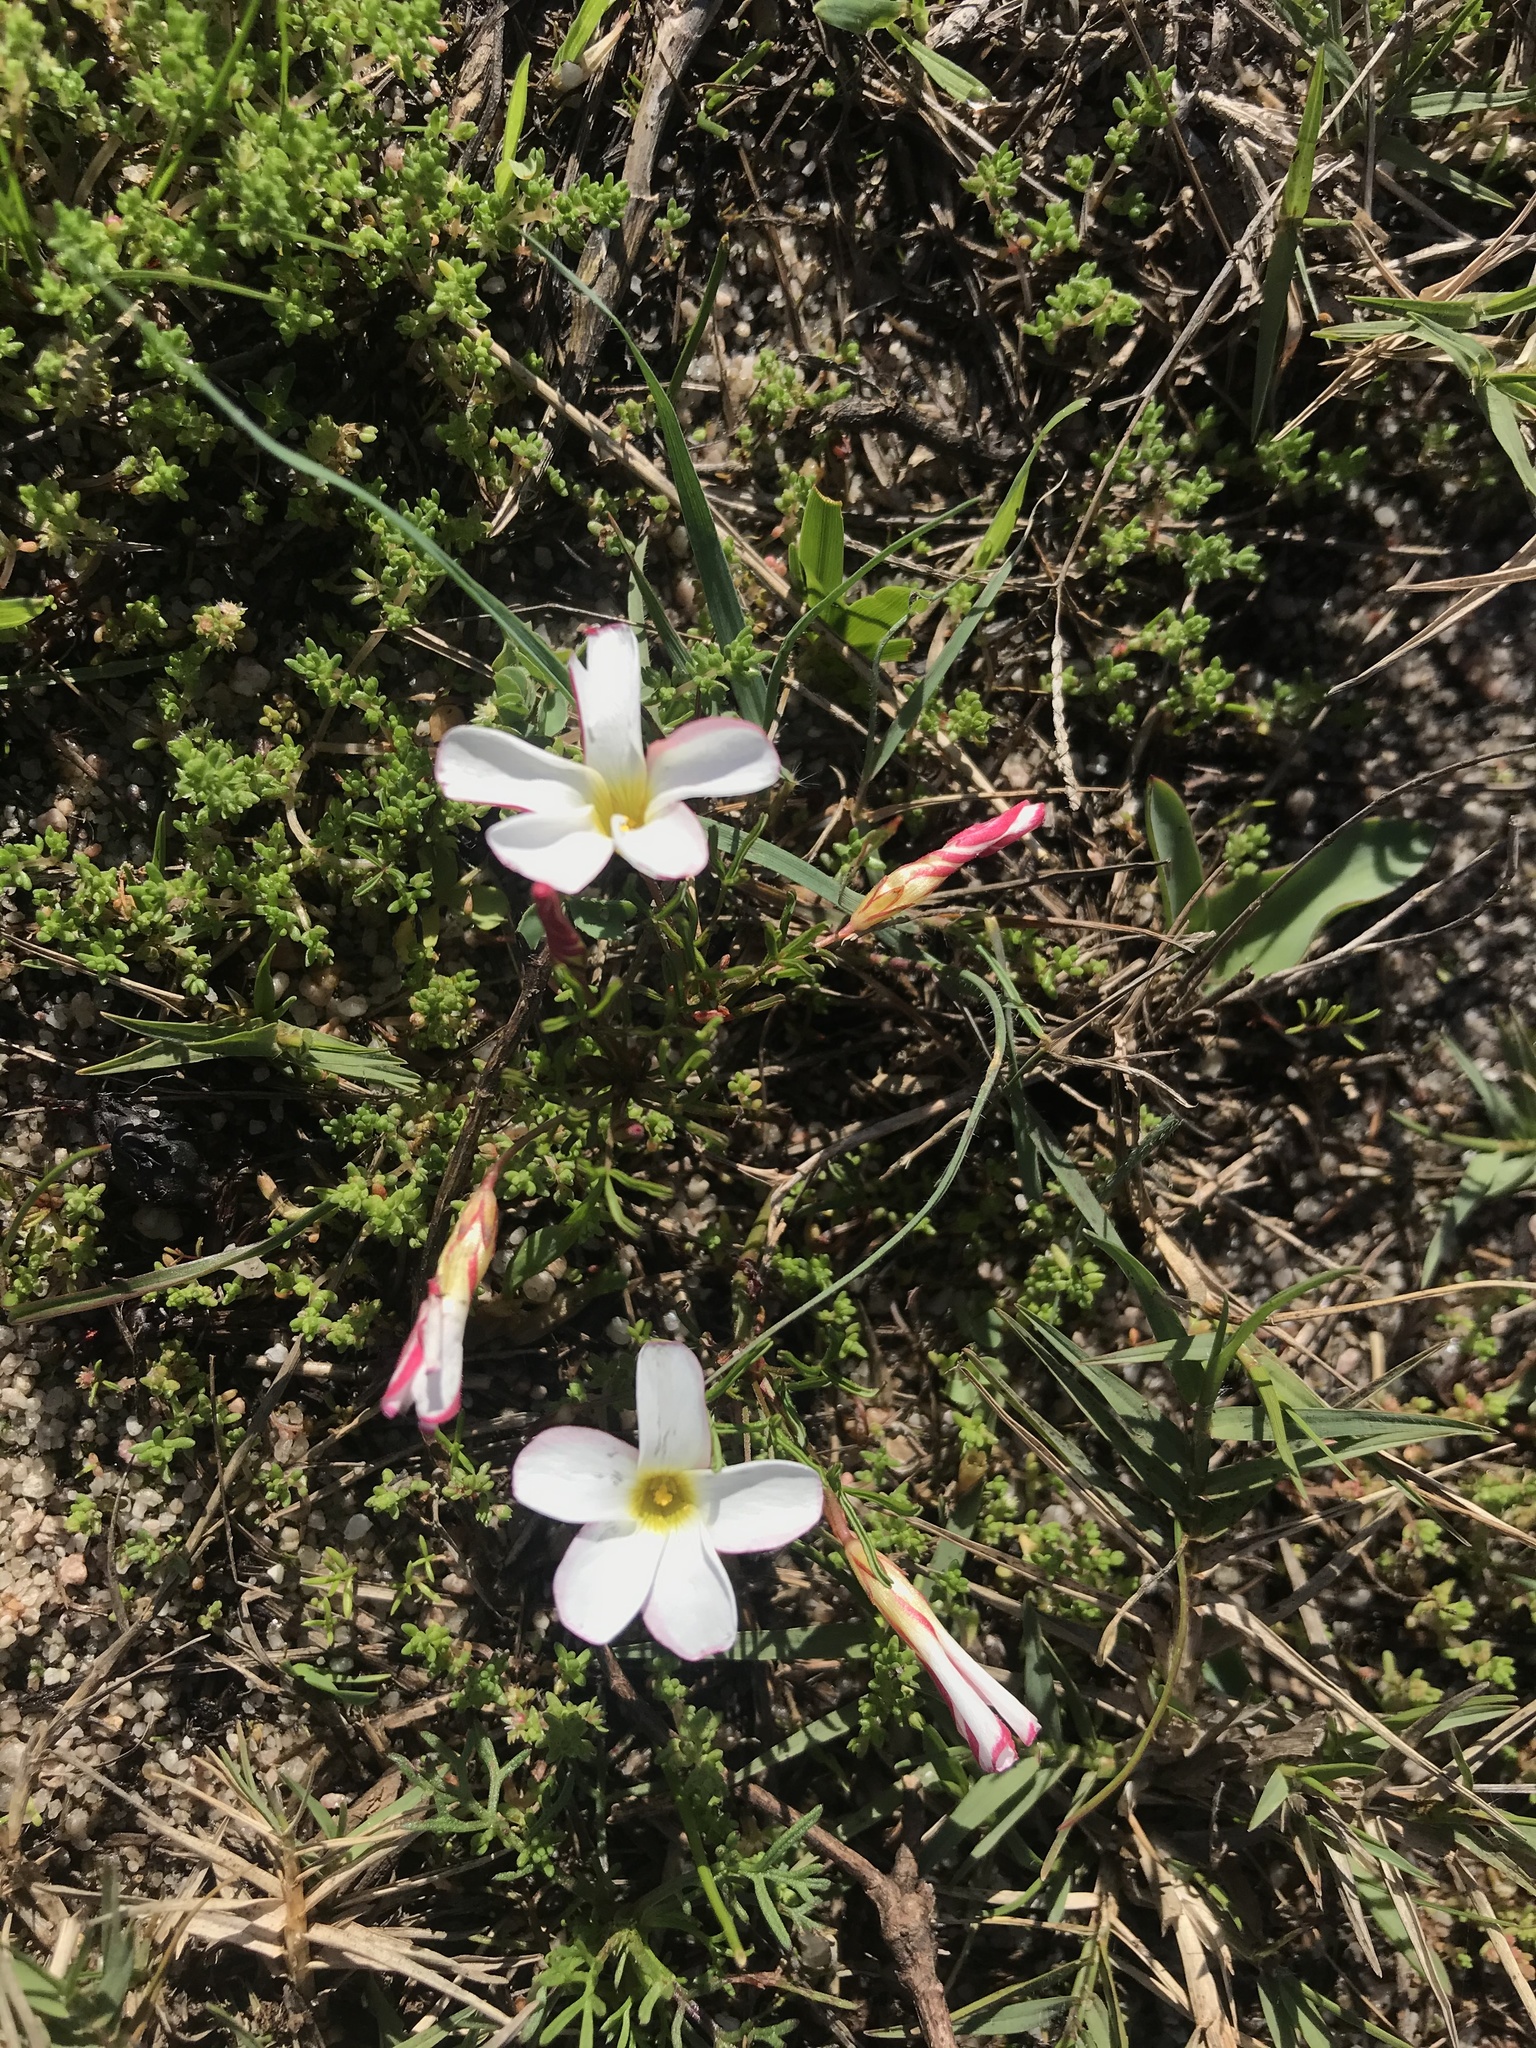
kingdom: Plantae
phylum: Tracheophyta
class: Magnoliopsida
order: Oxalidales
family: Oxalidaceae
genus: Oxalis
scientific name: Oxalis versicolor
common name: Peppermint rock oxalis
